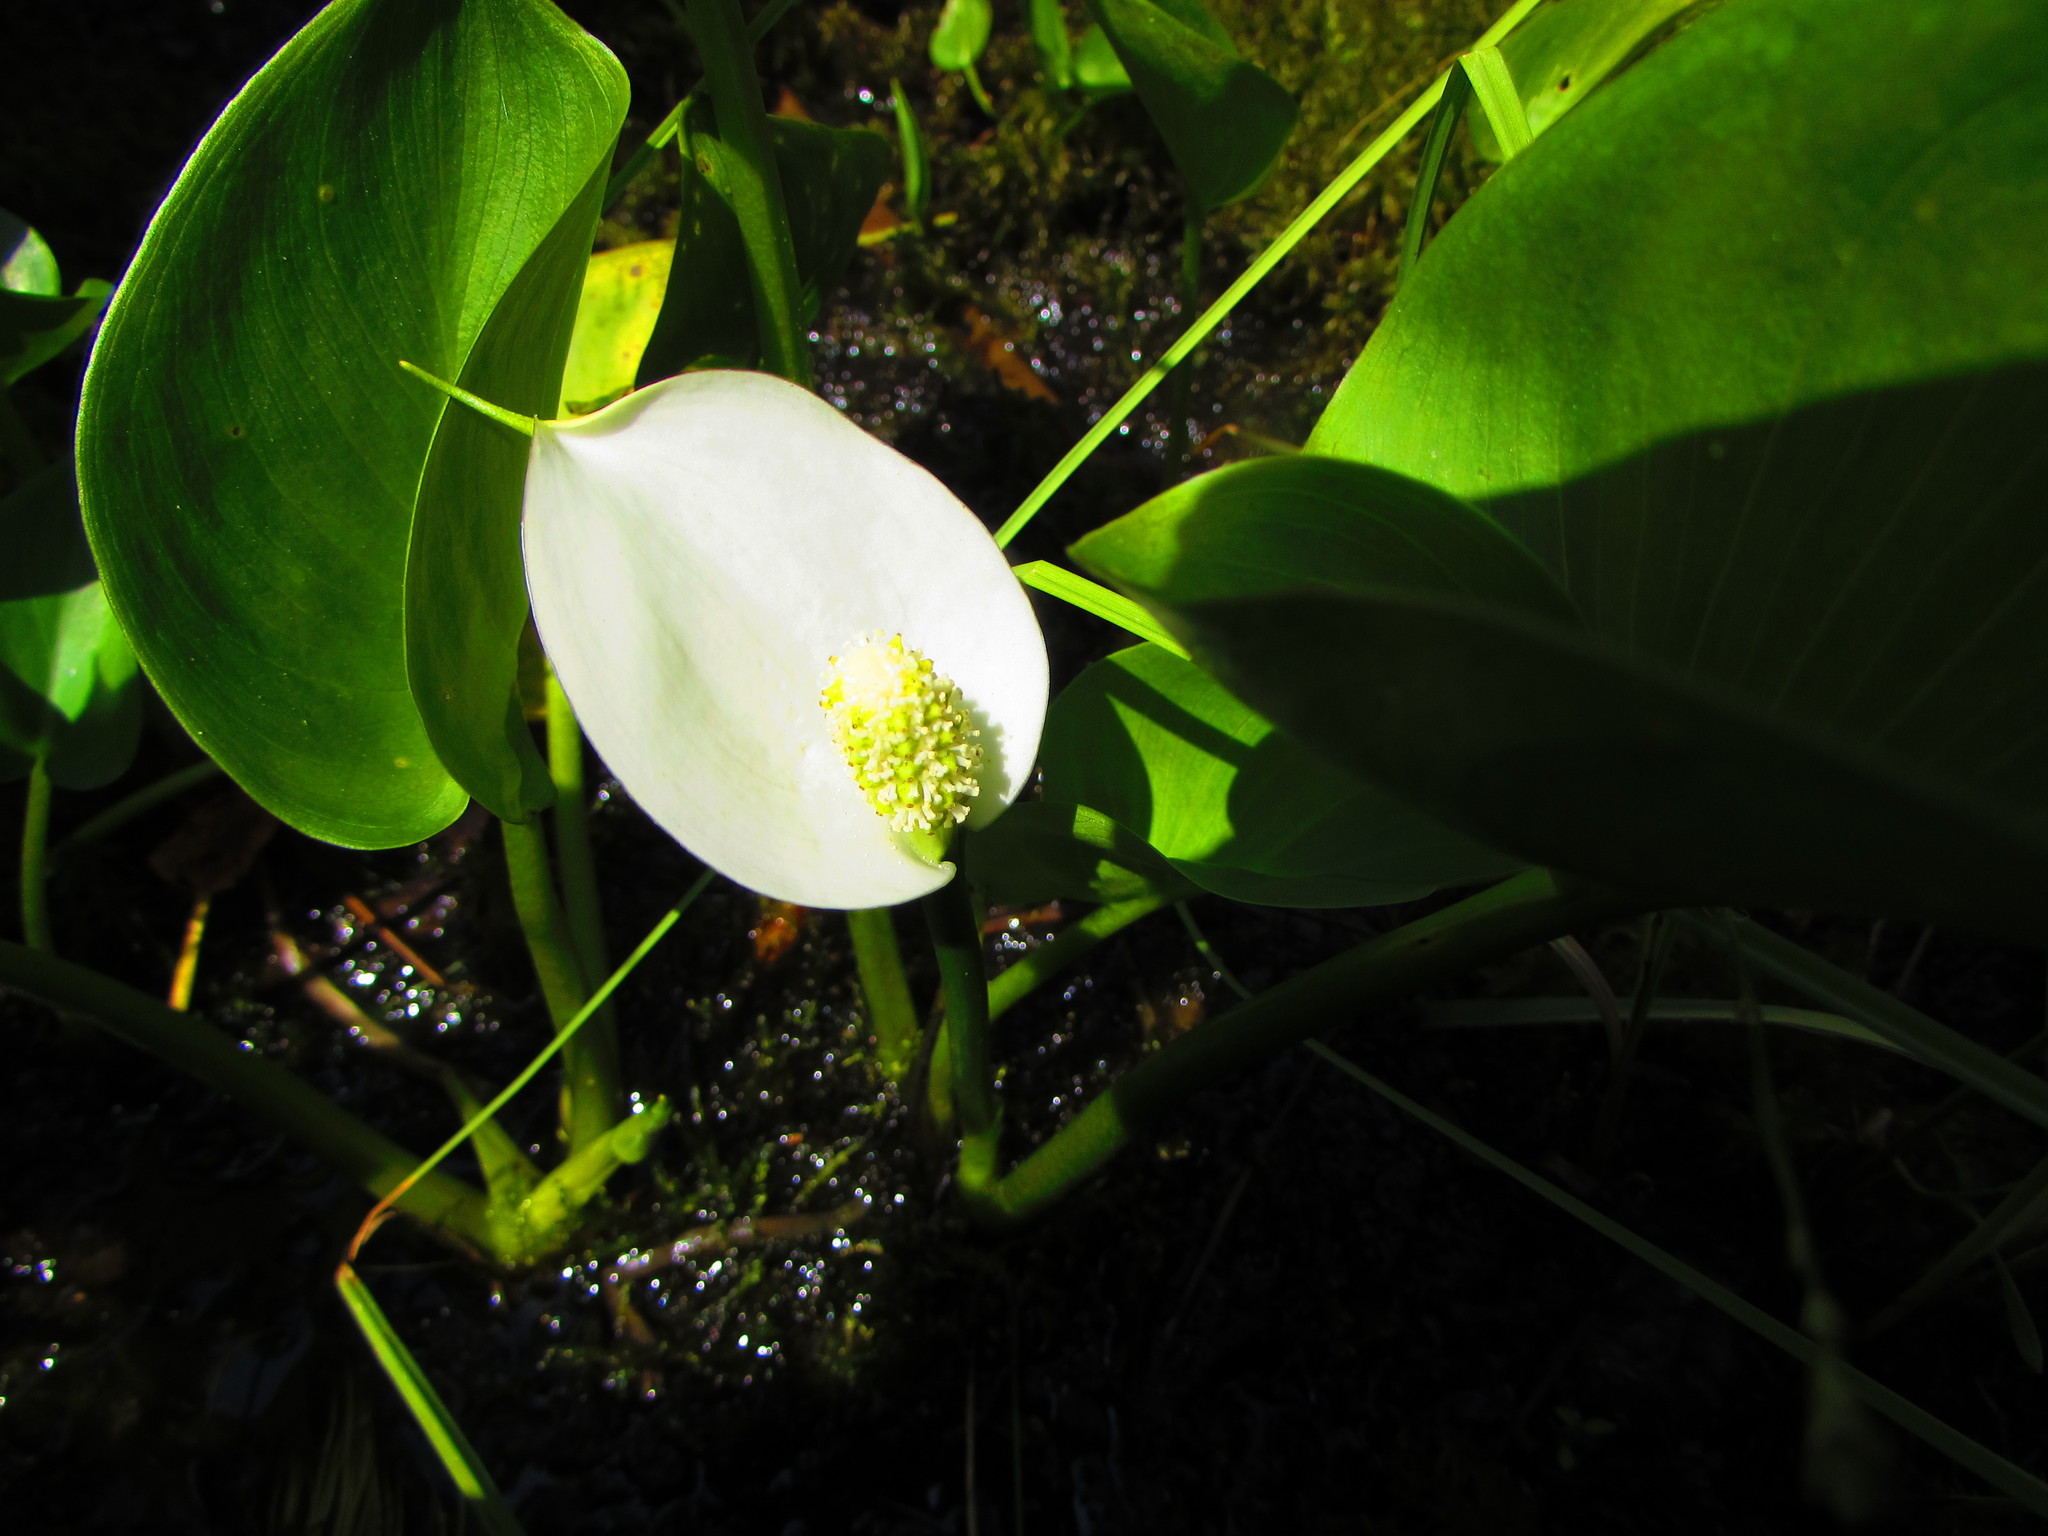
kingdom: Plantae
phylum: Tracheophyta
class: Liliopsida
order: Alismatales
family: Araceae
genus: Calla
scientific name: Calla palustris
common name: Bog arum
